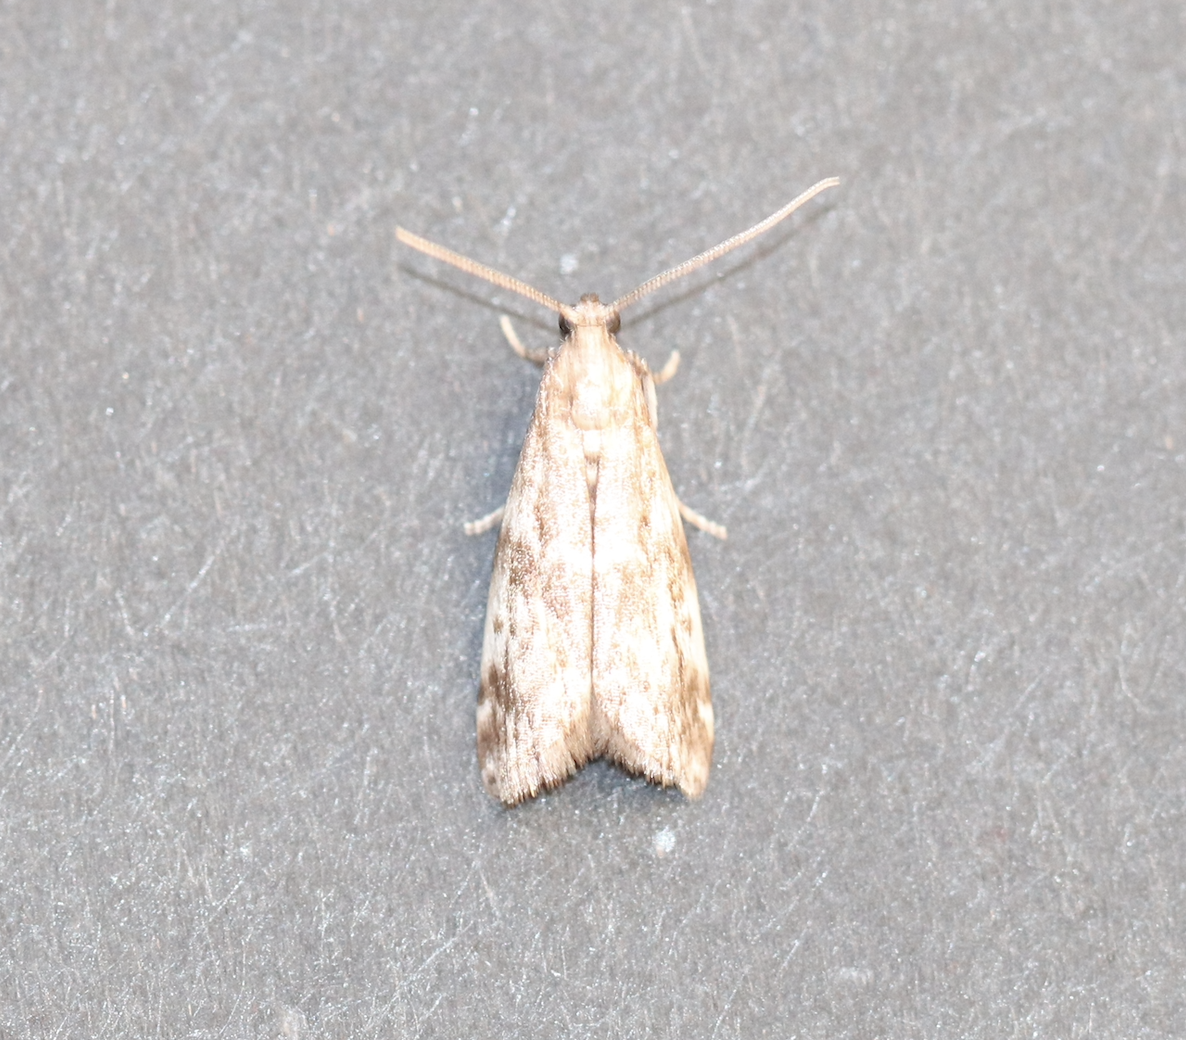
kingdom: Animalia
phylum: Arthropoda
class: Insecta
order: Lepidoptera
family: Pyralidae
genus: Assara
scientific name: Assara terebrella
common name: Dark spruce knot-horn
